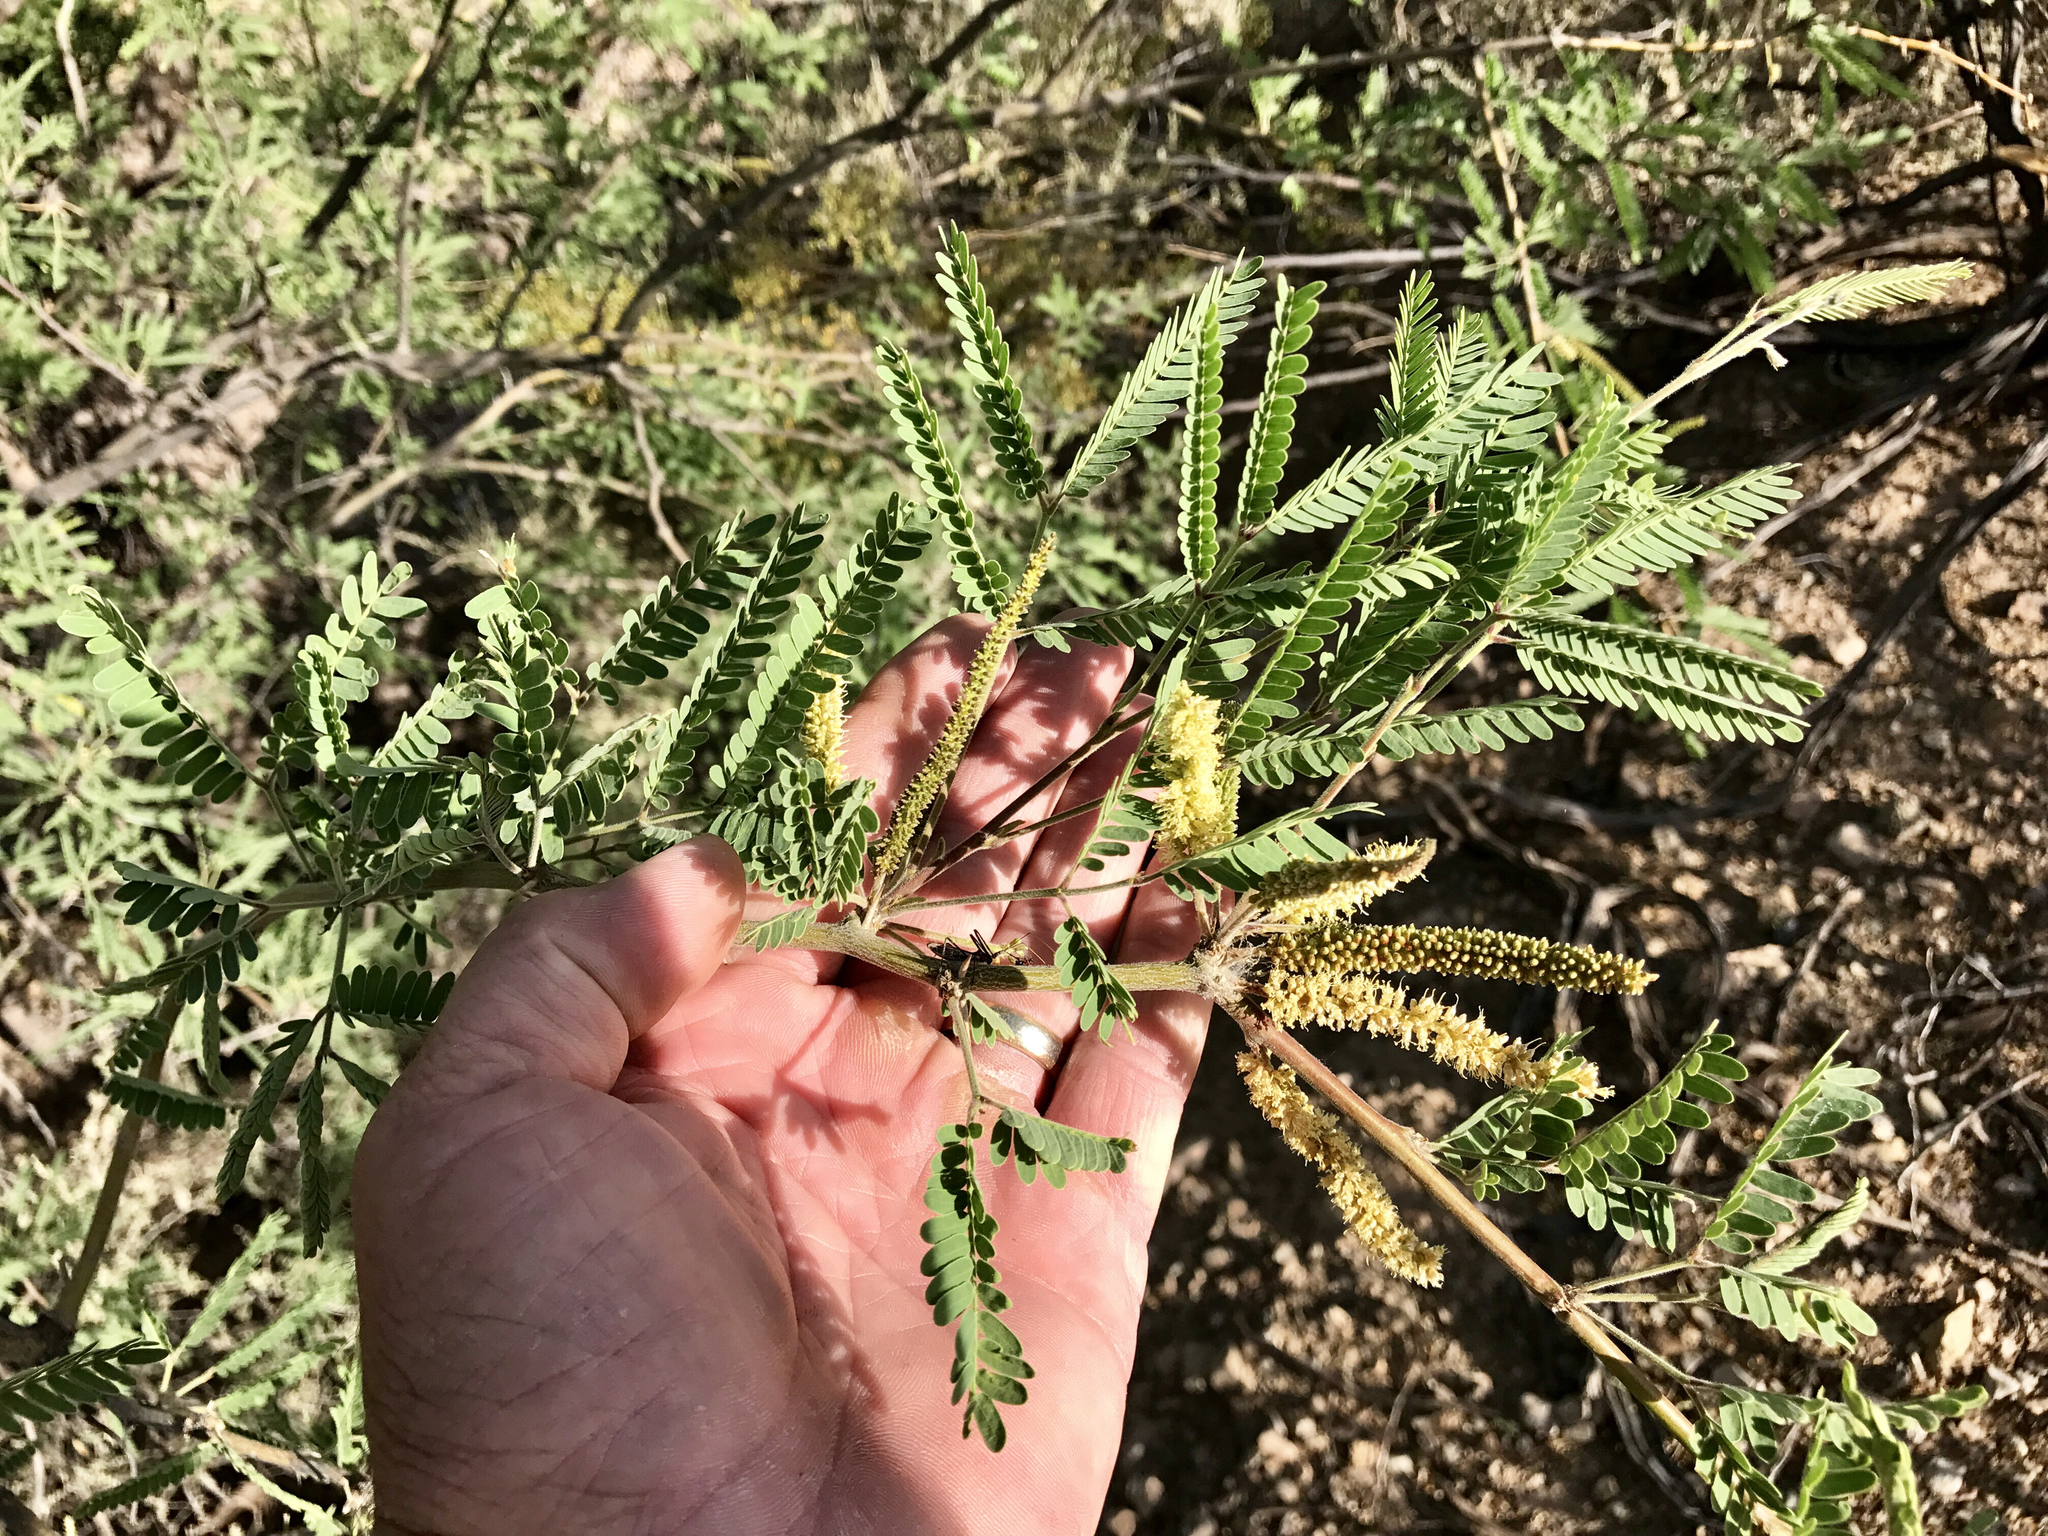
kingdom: Plantae
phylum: Tracheophyta
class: Magnoliopsida
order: Fabales
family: Fabaceae
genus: Prosopis
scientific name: Prosopis velutina
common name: Velvet mesquite
